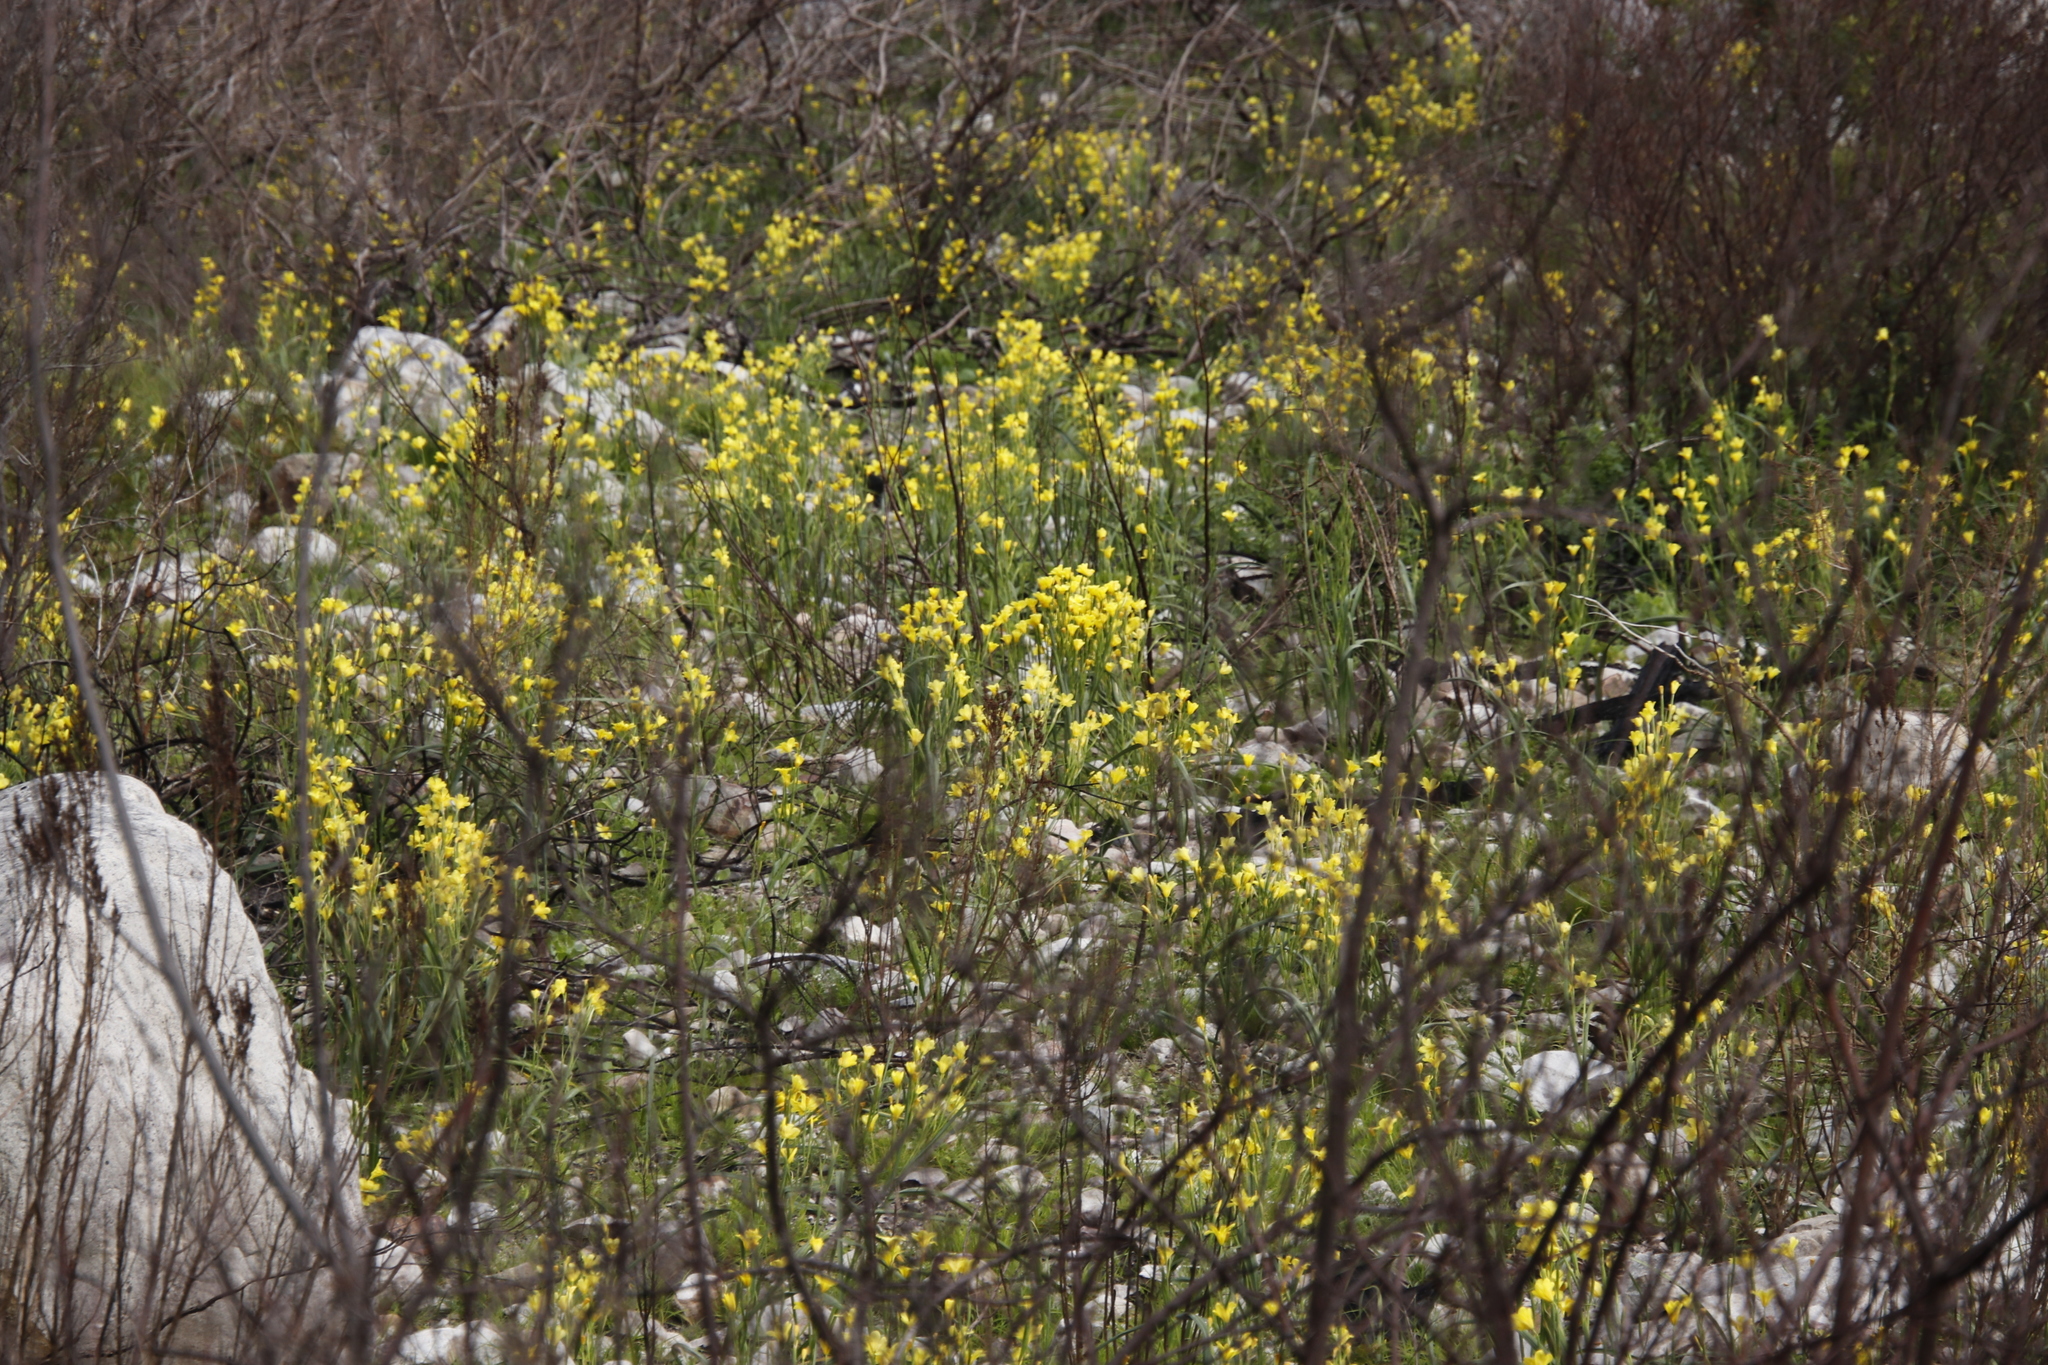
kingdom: Plantae
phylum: Tracheophyta
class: Liliopsida
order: Asparagales
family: Iridaceae
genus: Moraea
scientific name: Moraea ochroleuca
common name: Red tulp
